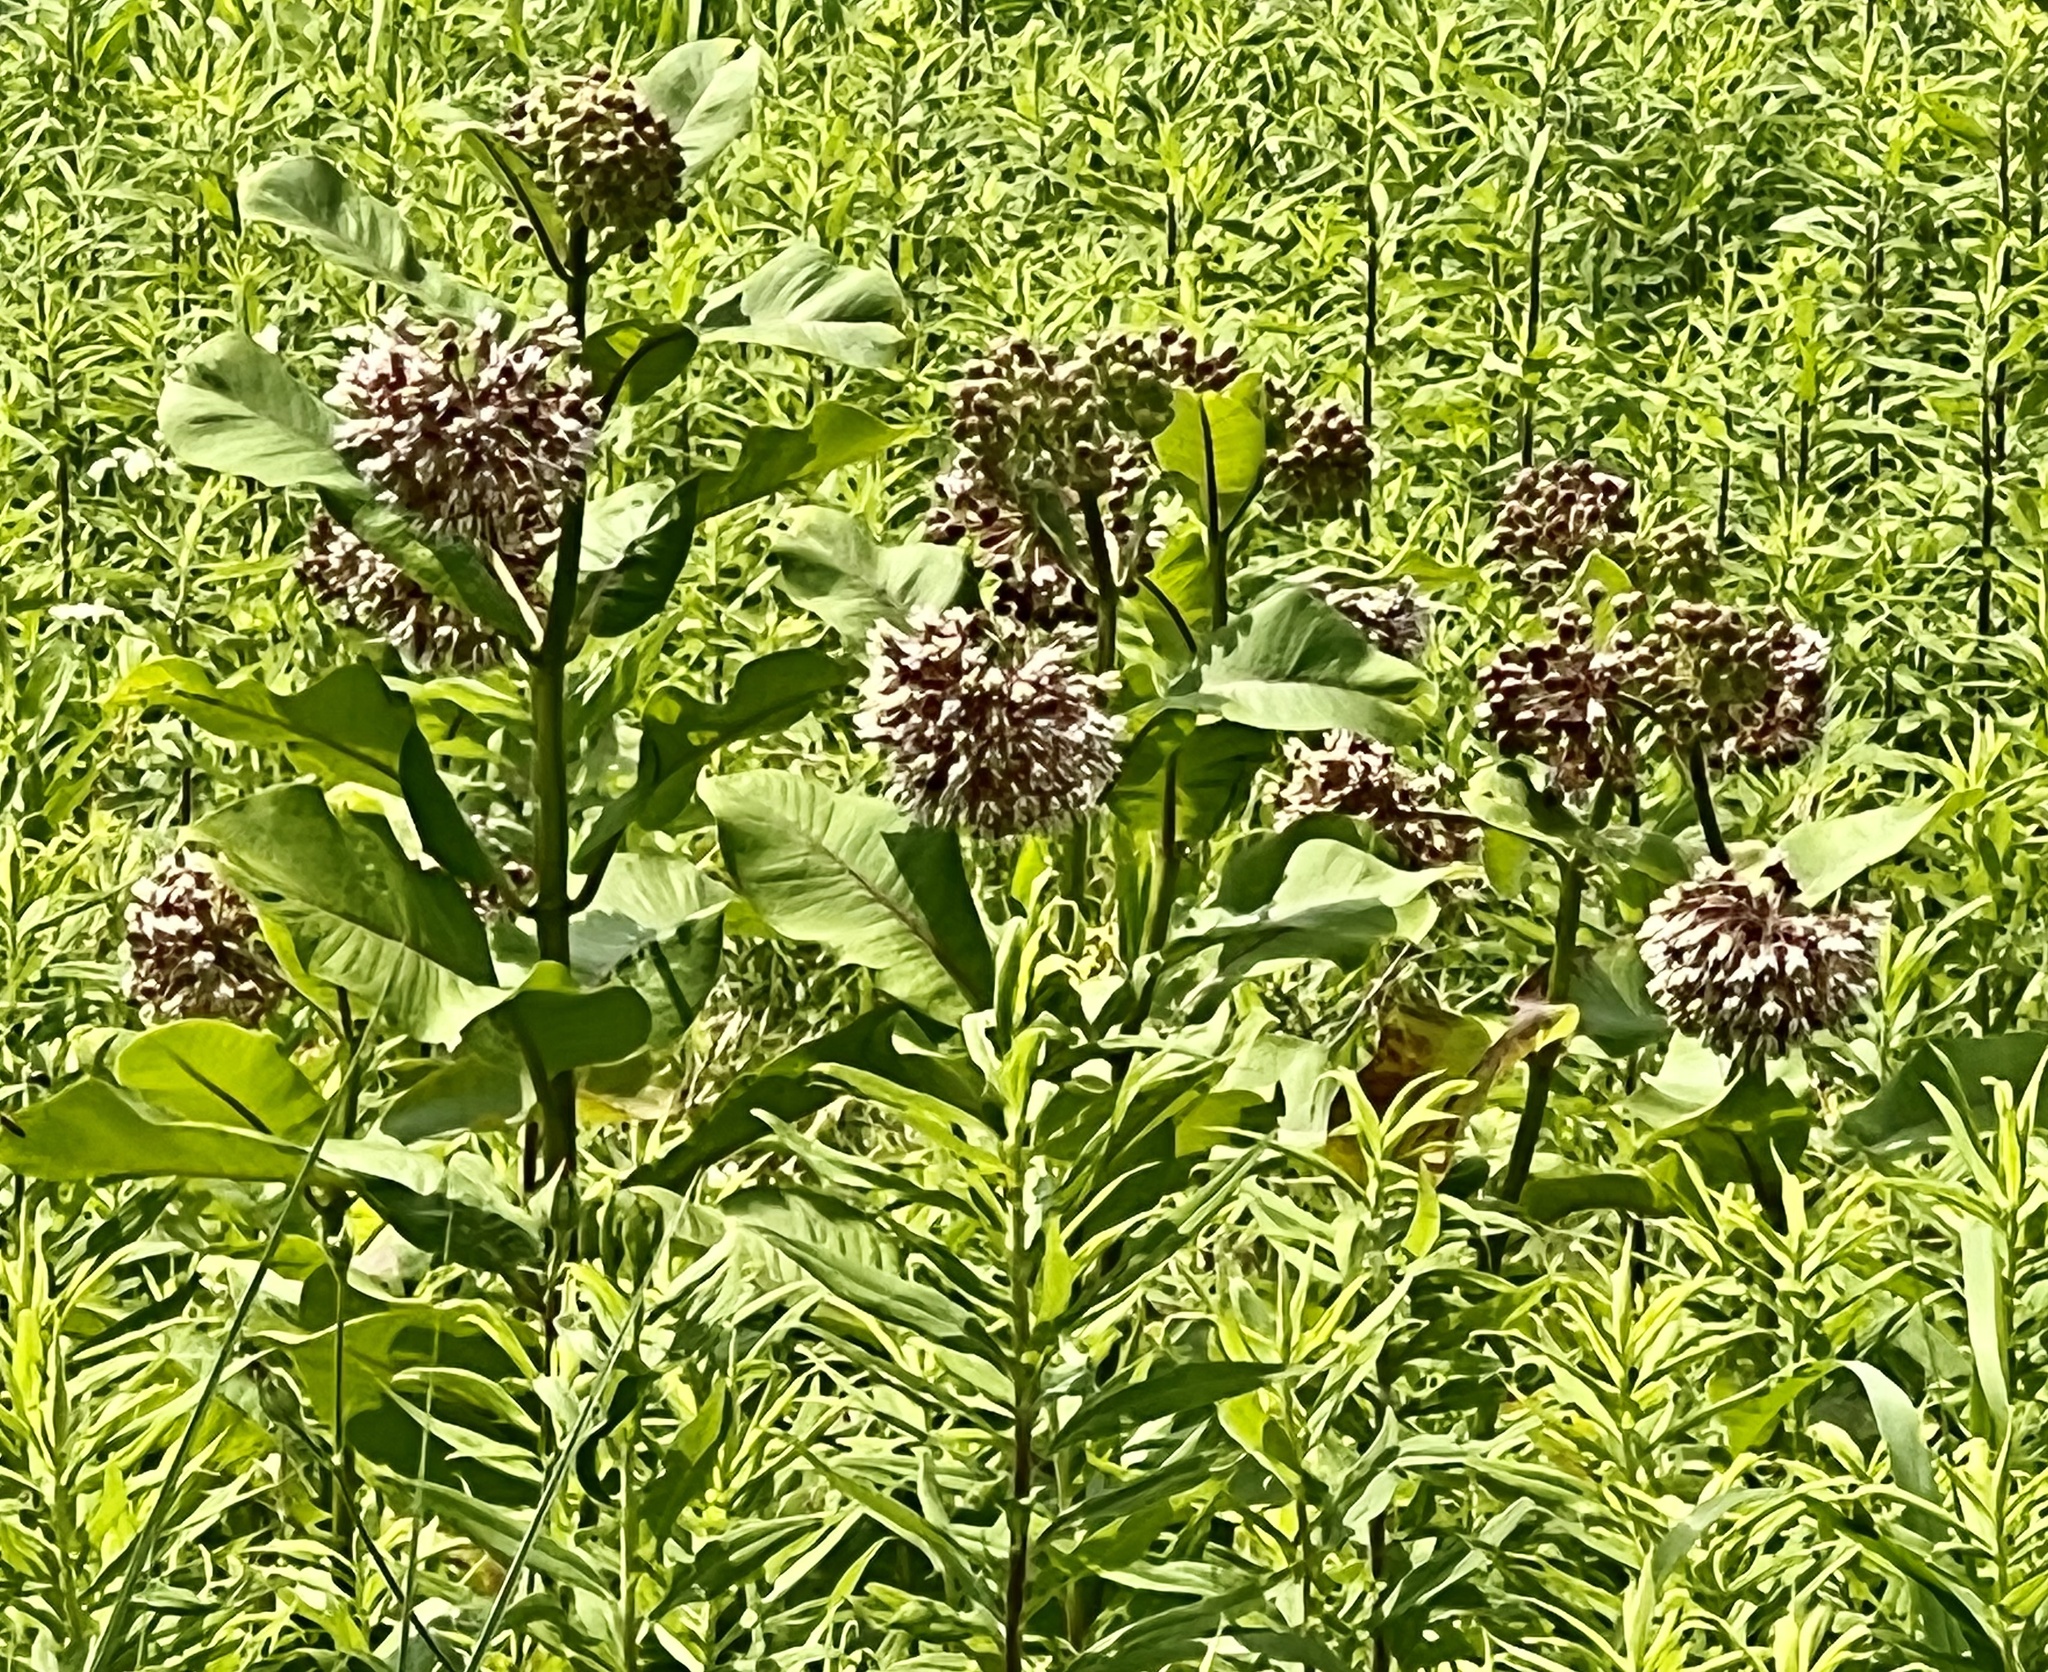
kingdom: Plantae
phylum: Tracheophyta
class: Magnoliopsida
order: Gentianales
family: Apocynaceae
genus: Asclepias
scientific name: Asclepias syriaca
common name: Common milkweed
